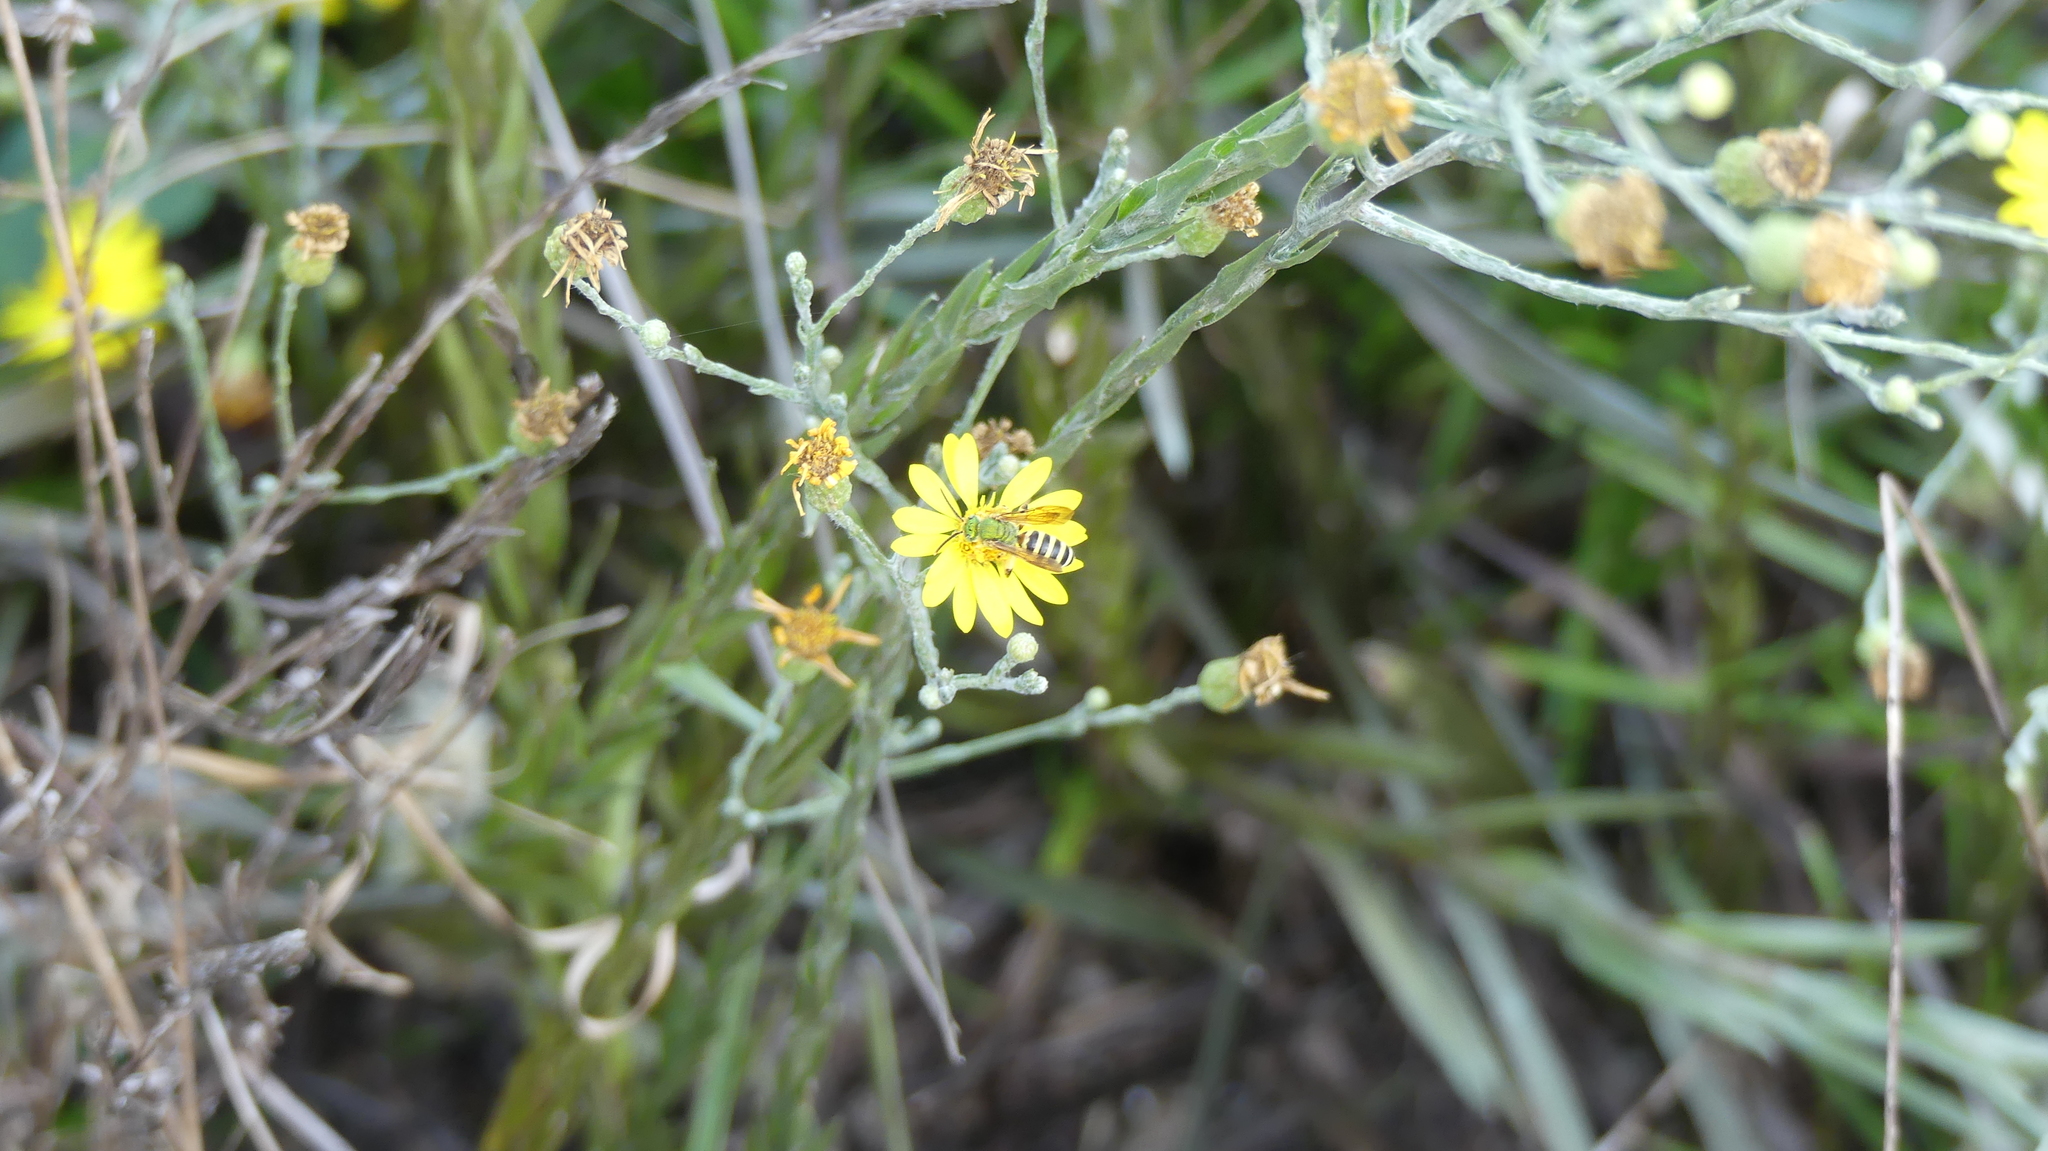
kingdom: Animalia
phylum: Arthropoda
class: Insecta
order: Hymenoptera
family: Halictidae
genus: Agapostemon
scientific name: Agapostemon splendens
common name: Brown-winged striped sweat bee
